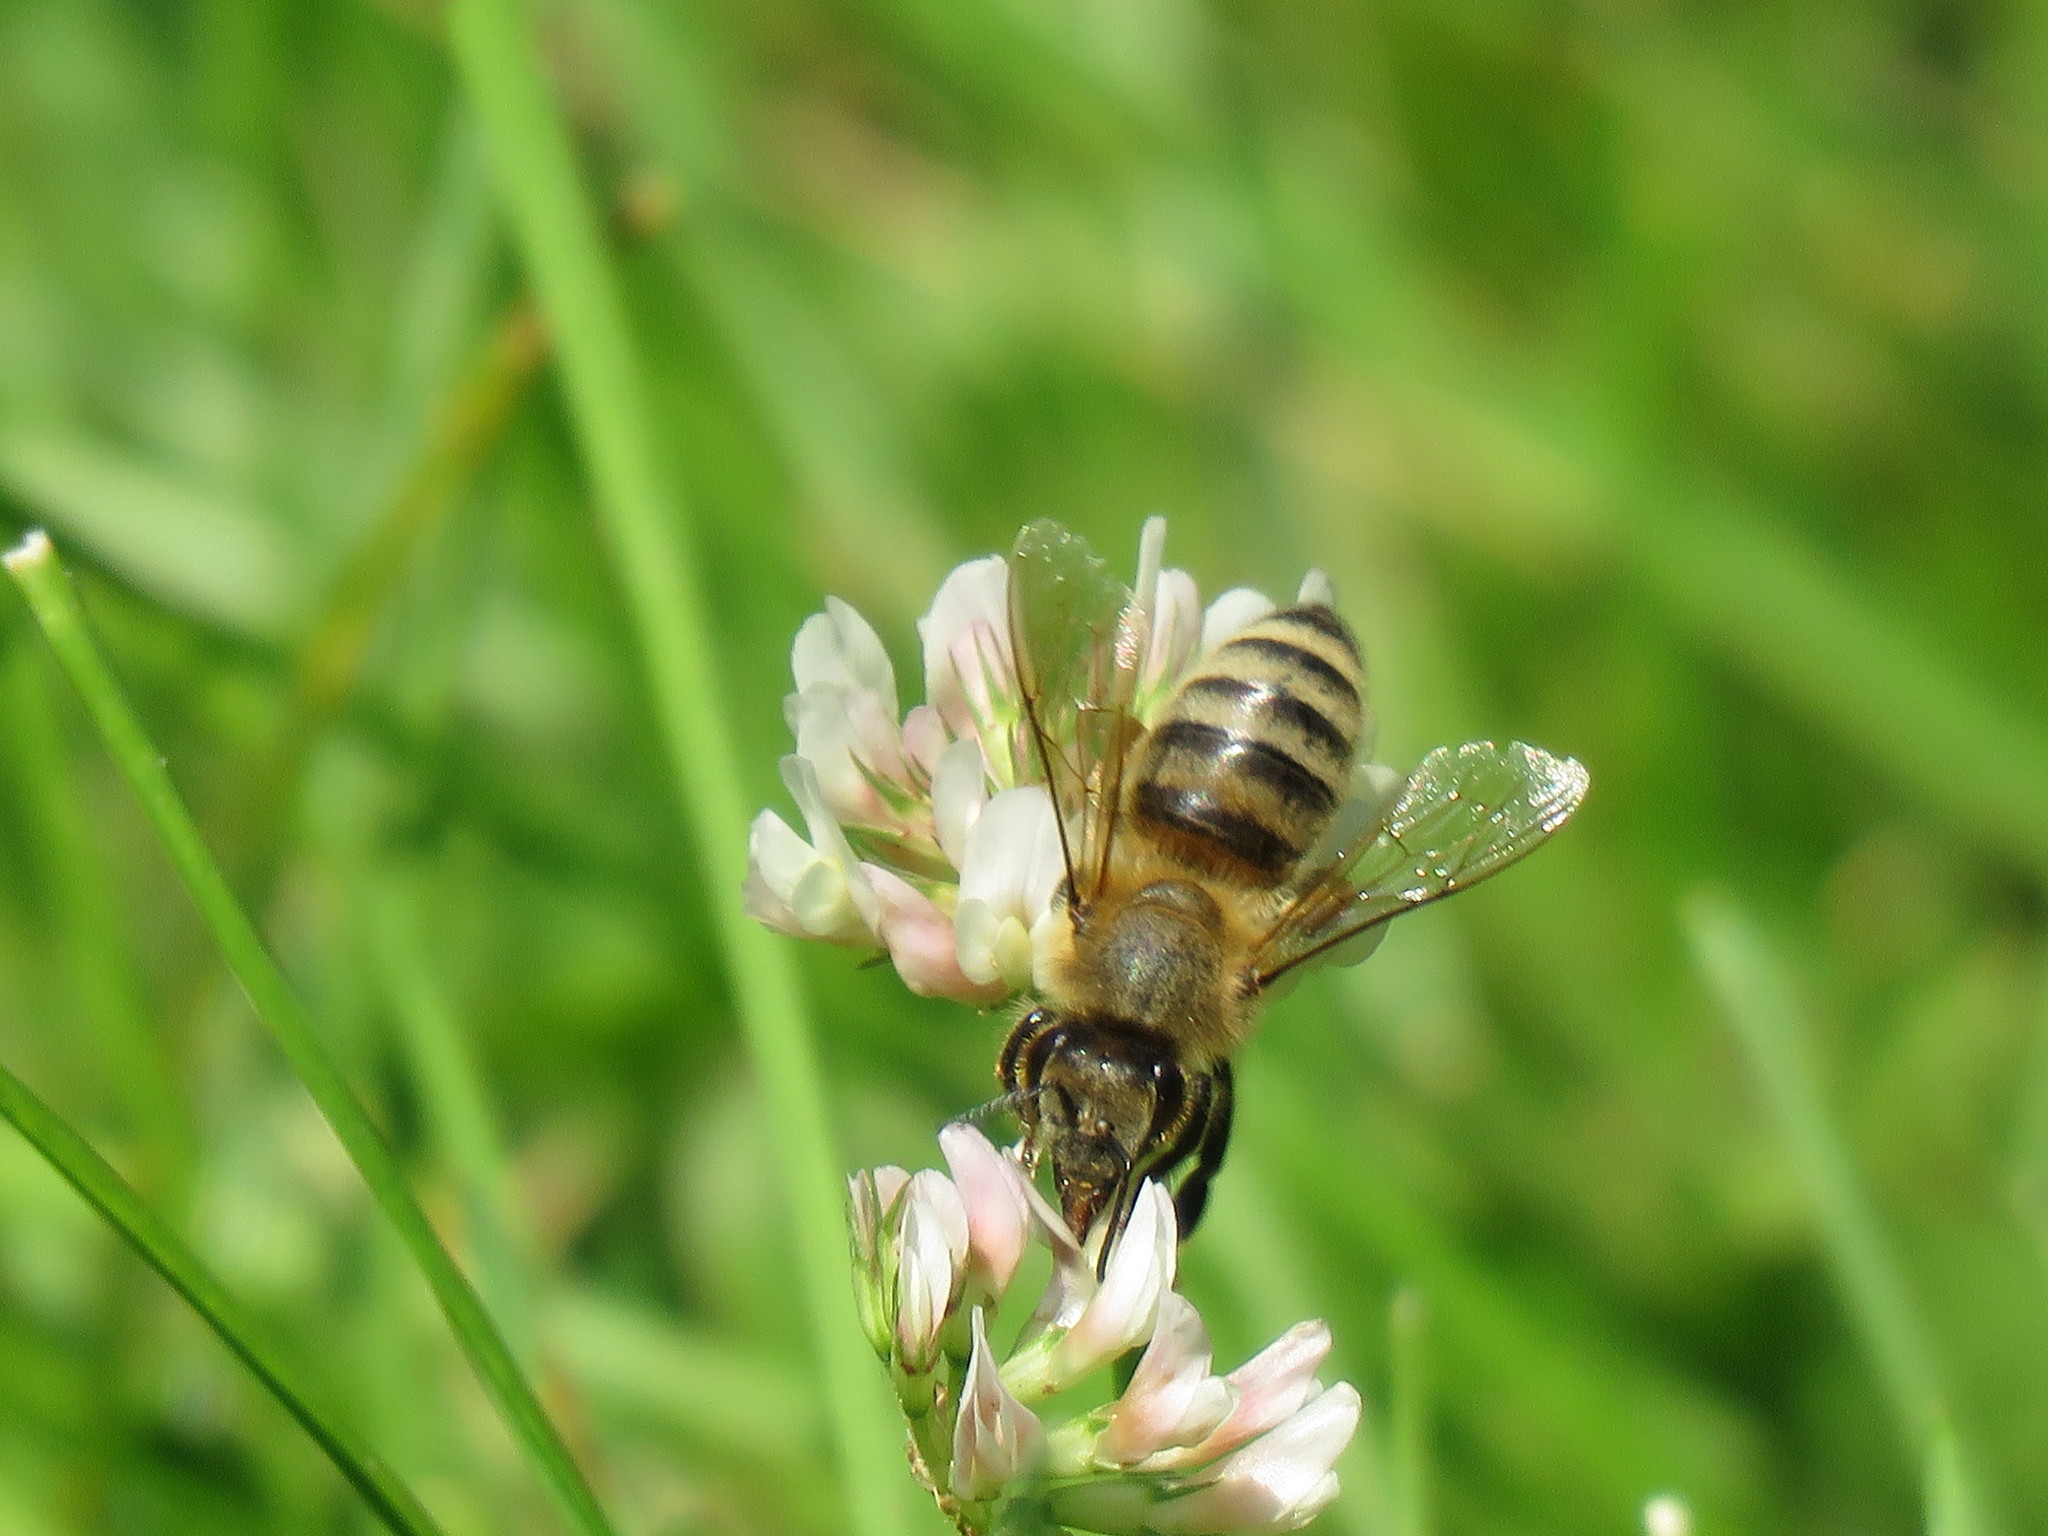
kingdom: Animalia
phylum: Arthropoda
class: Insecta
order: Hymenoptera
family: Apidae
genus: Apis
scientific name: Apis mellifera
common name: Honey bee
